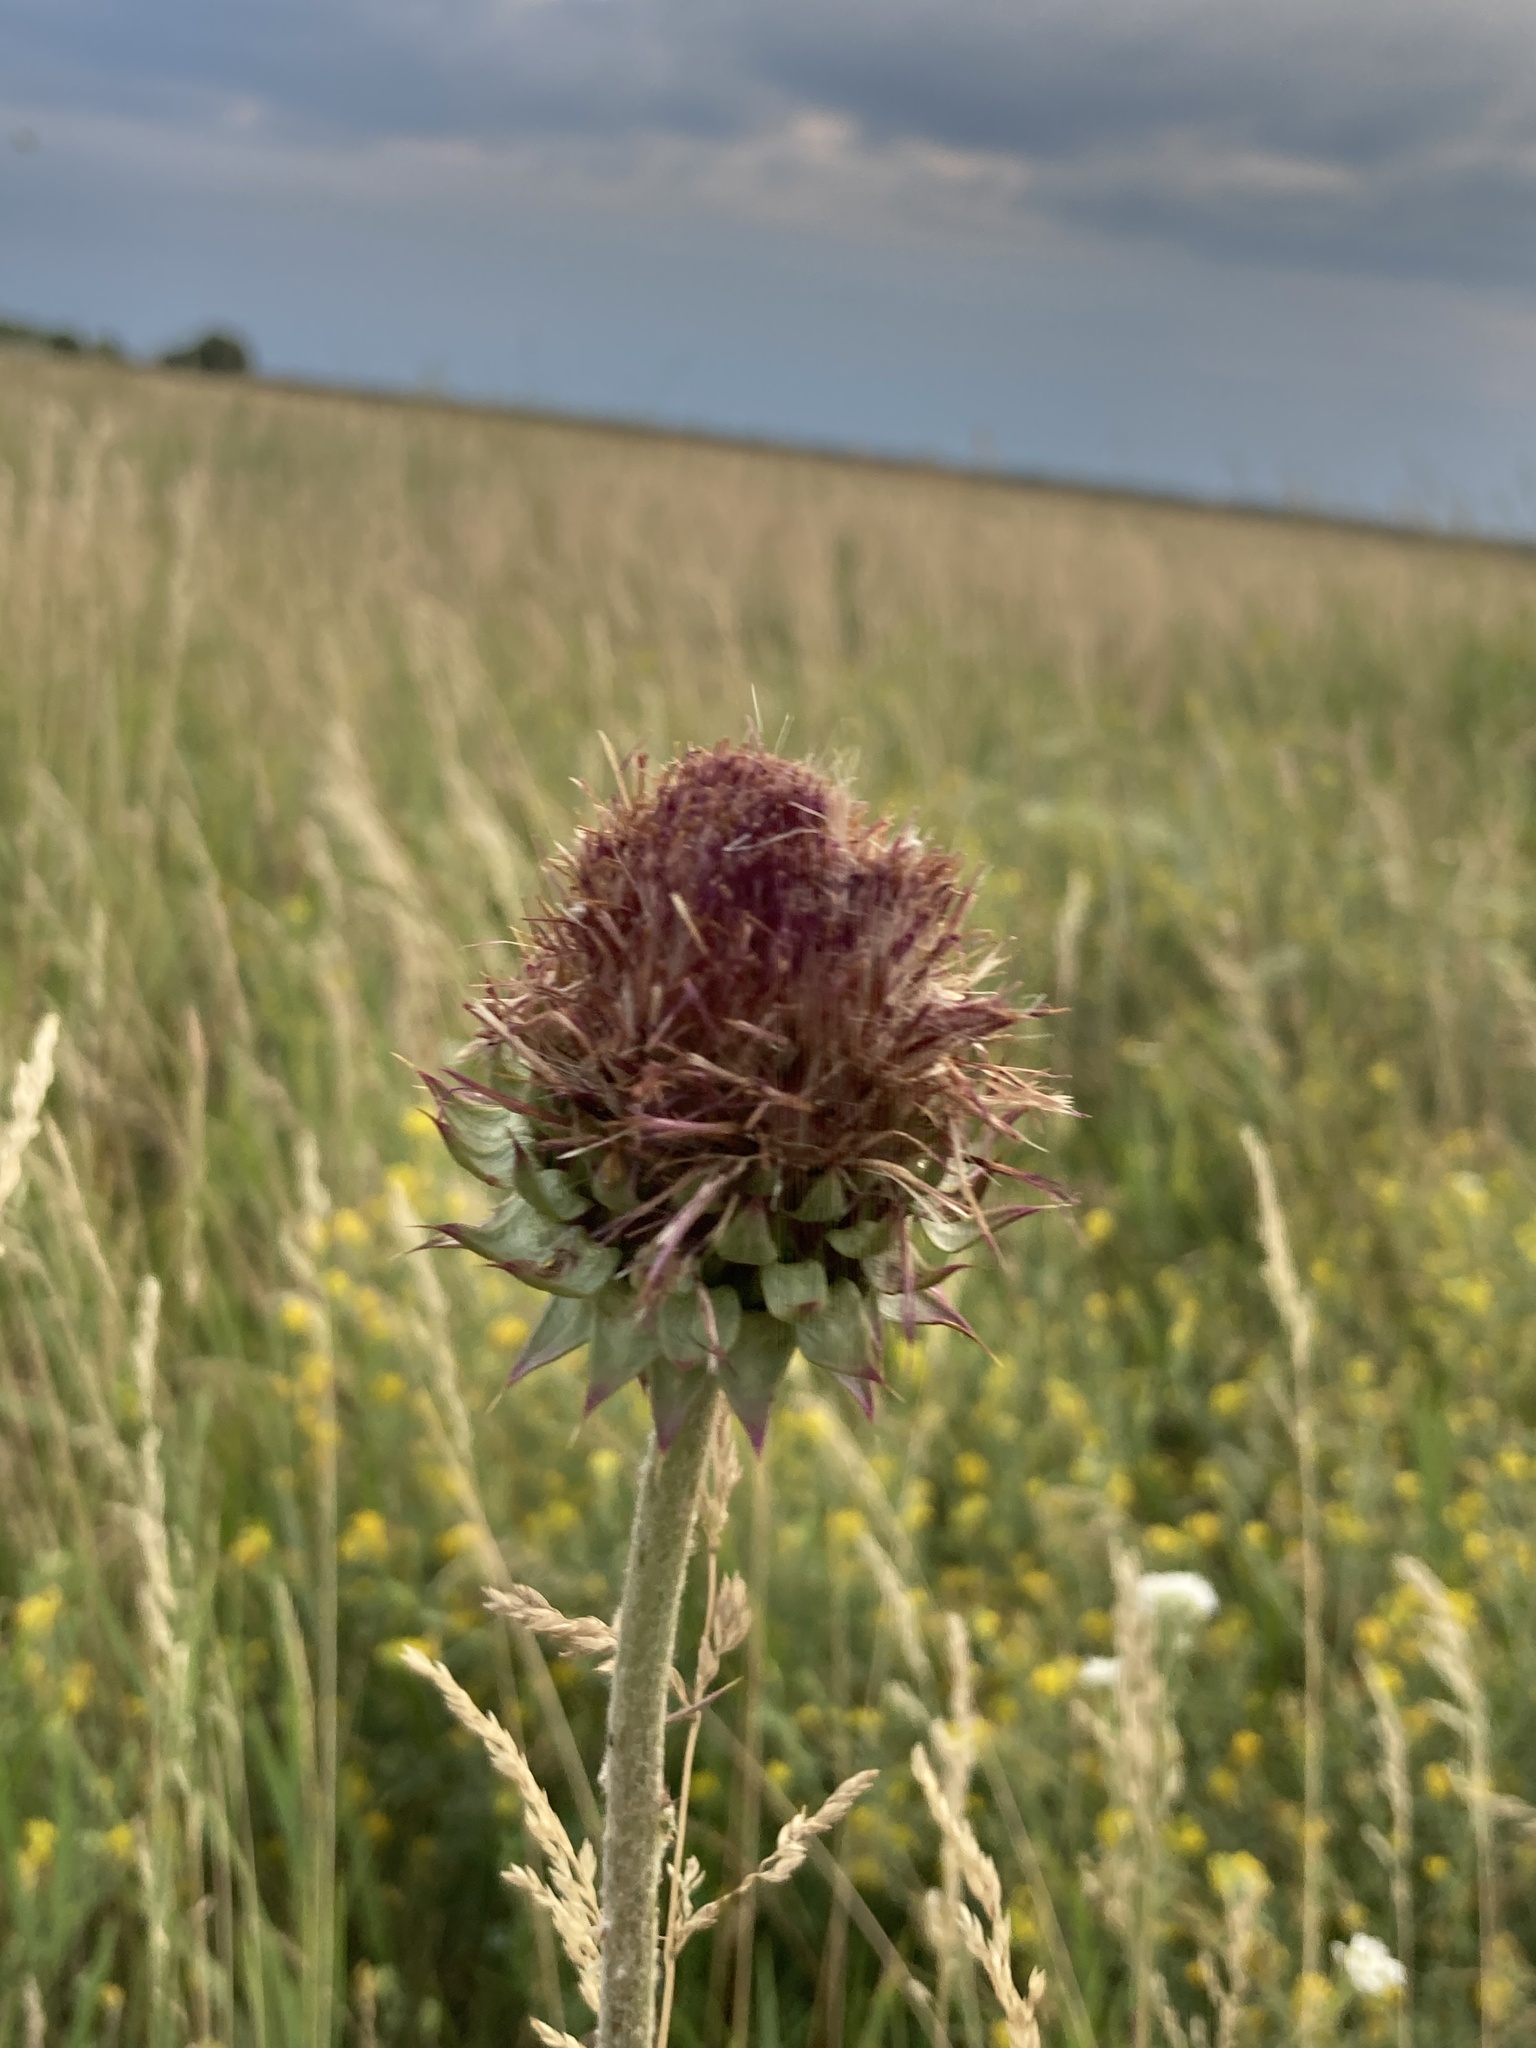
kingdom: Plantae
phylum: Tracheophyta
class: Magnoliopsida
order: Asterales
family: Asteraceae
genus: Carduus
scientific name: Carduus nutans
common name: Musk thistle
